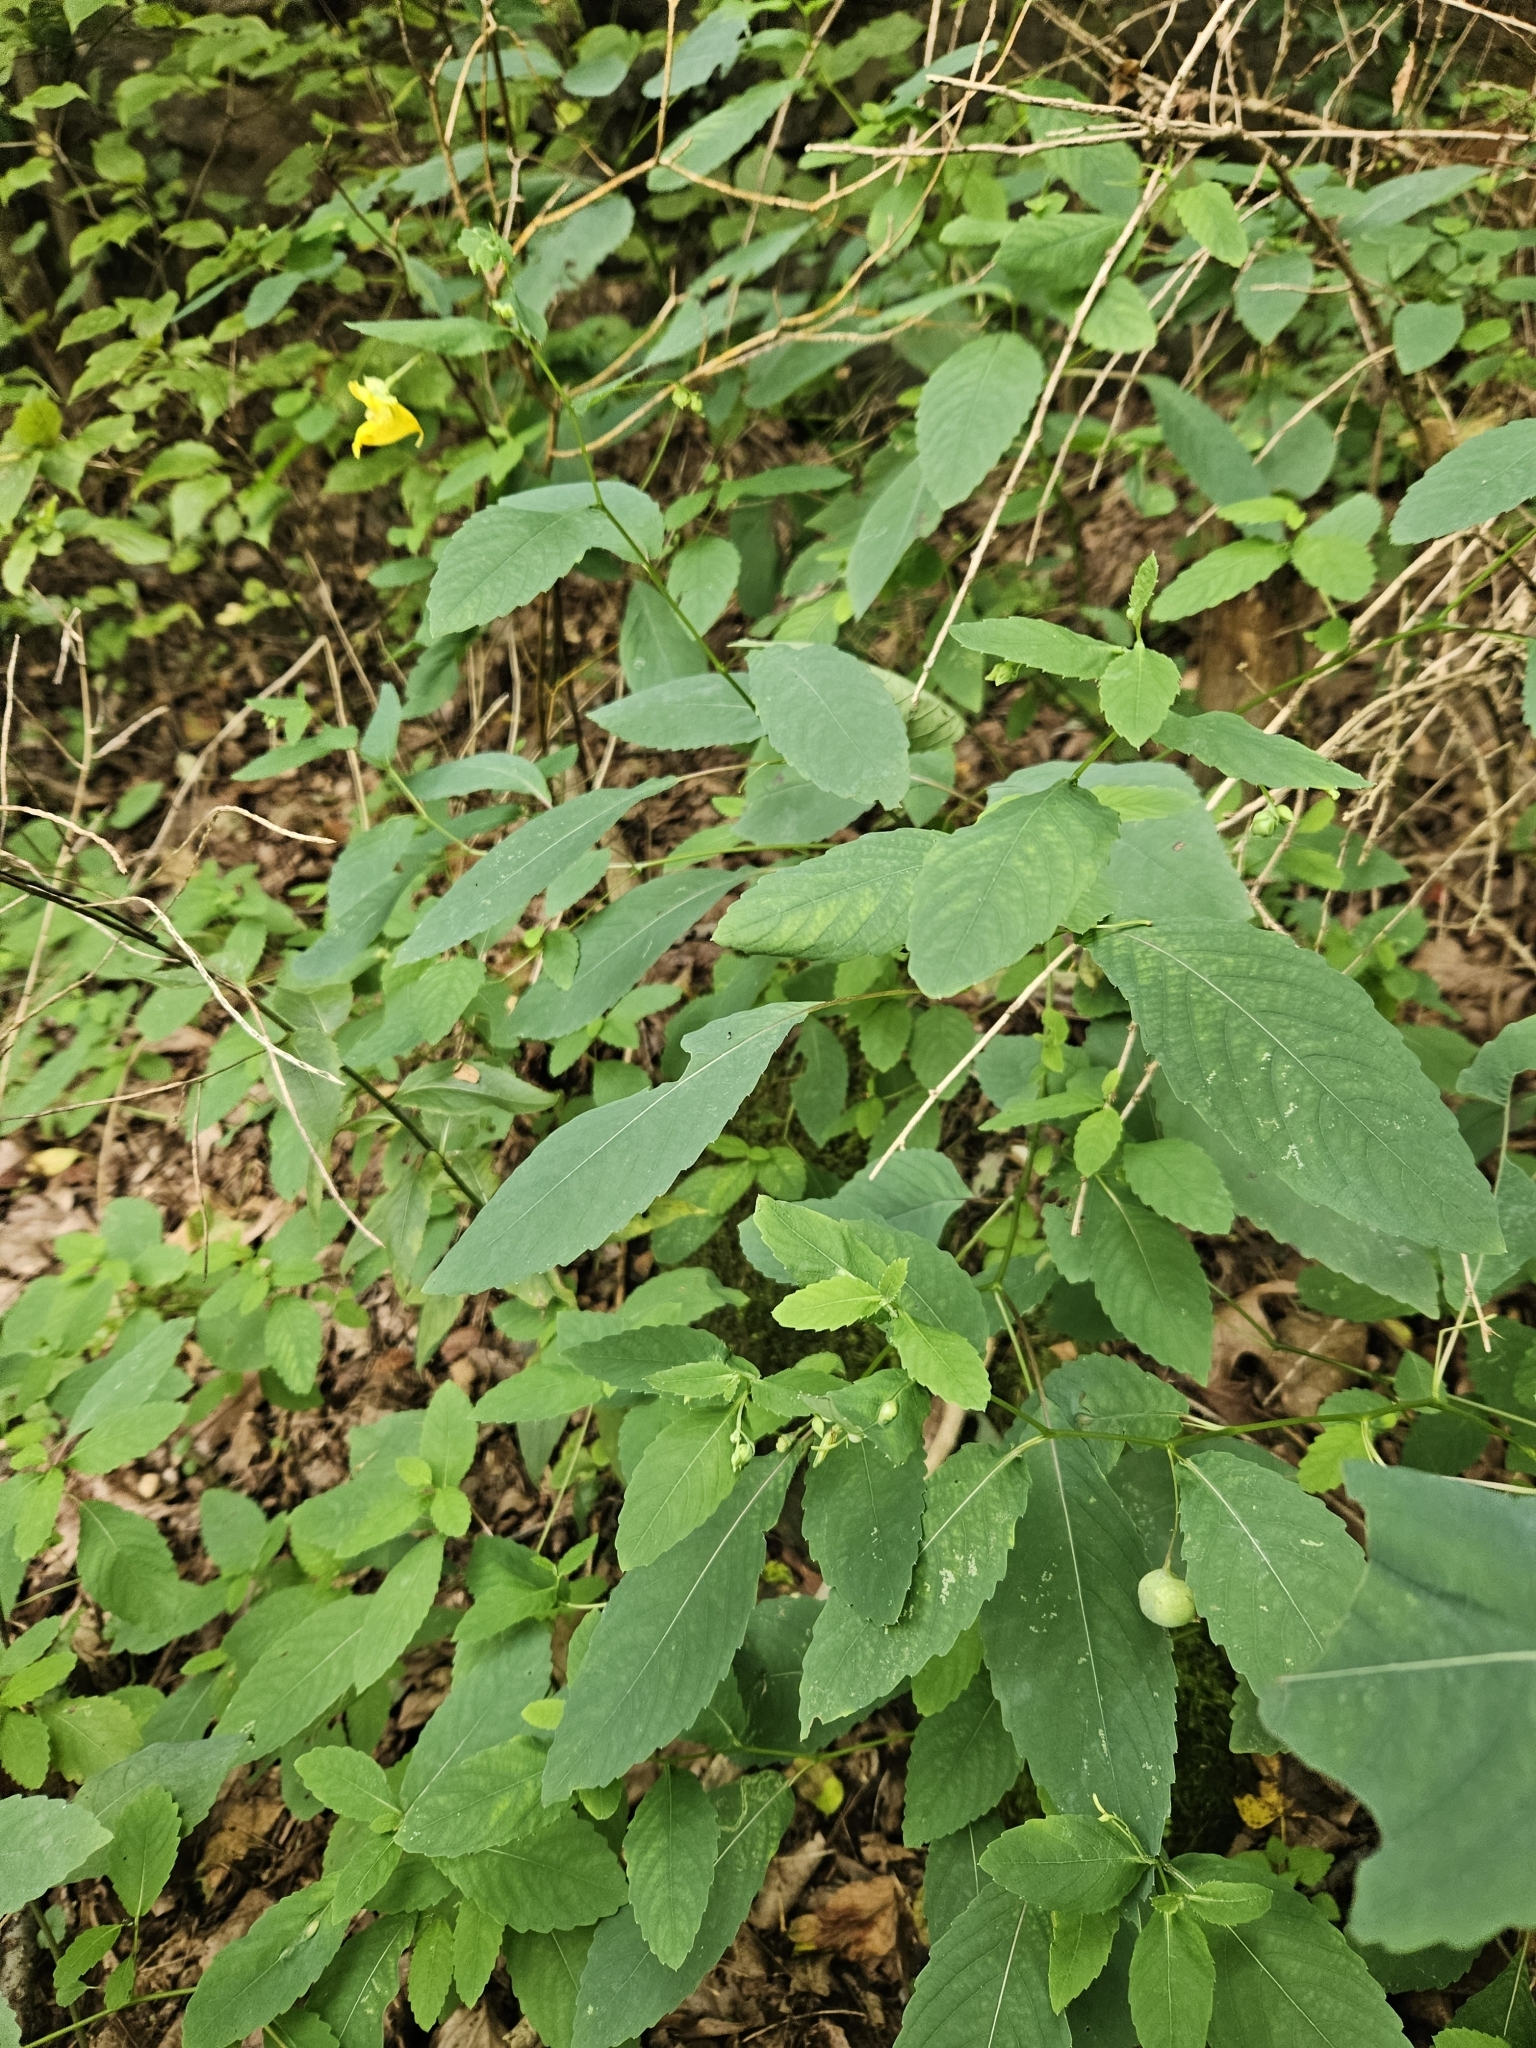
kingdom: Animalia
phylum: Arthropoda
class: Insecta
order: Diptera
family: Cecidomyiidae
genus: Schizomyia
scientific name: Schizomyia impatientis
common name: Jewelweed gall midge
